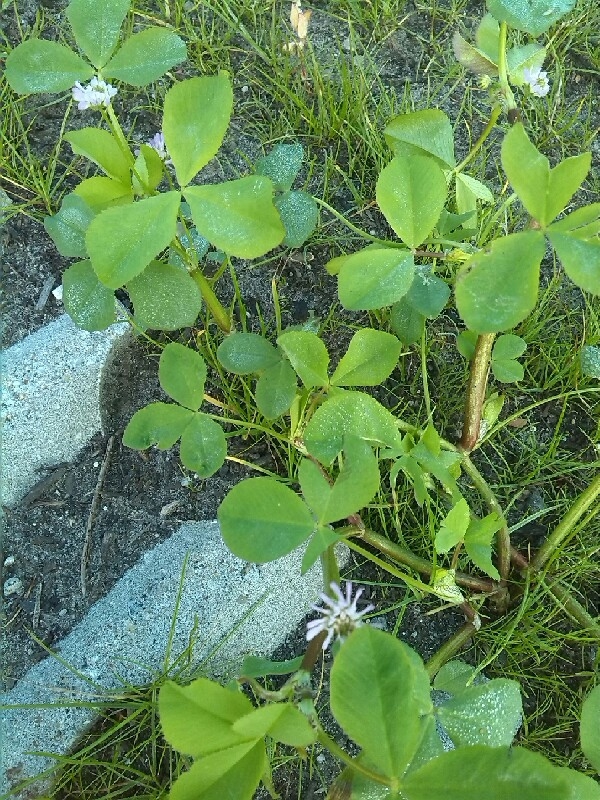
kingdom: Plantae
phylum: Tracheophyta
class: Magnoliopsida
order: Fabales
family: Fabaceae
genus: Trifolium
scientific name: Trifolium resupinatum
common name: Reversed clover
